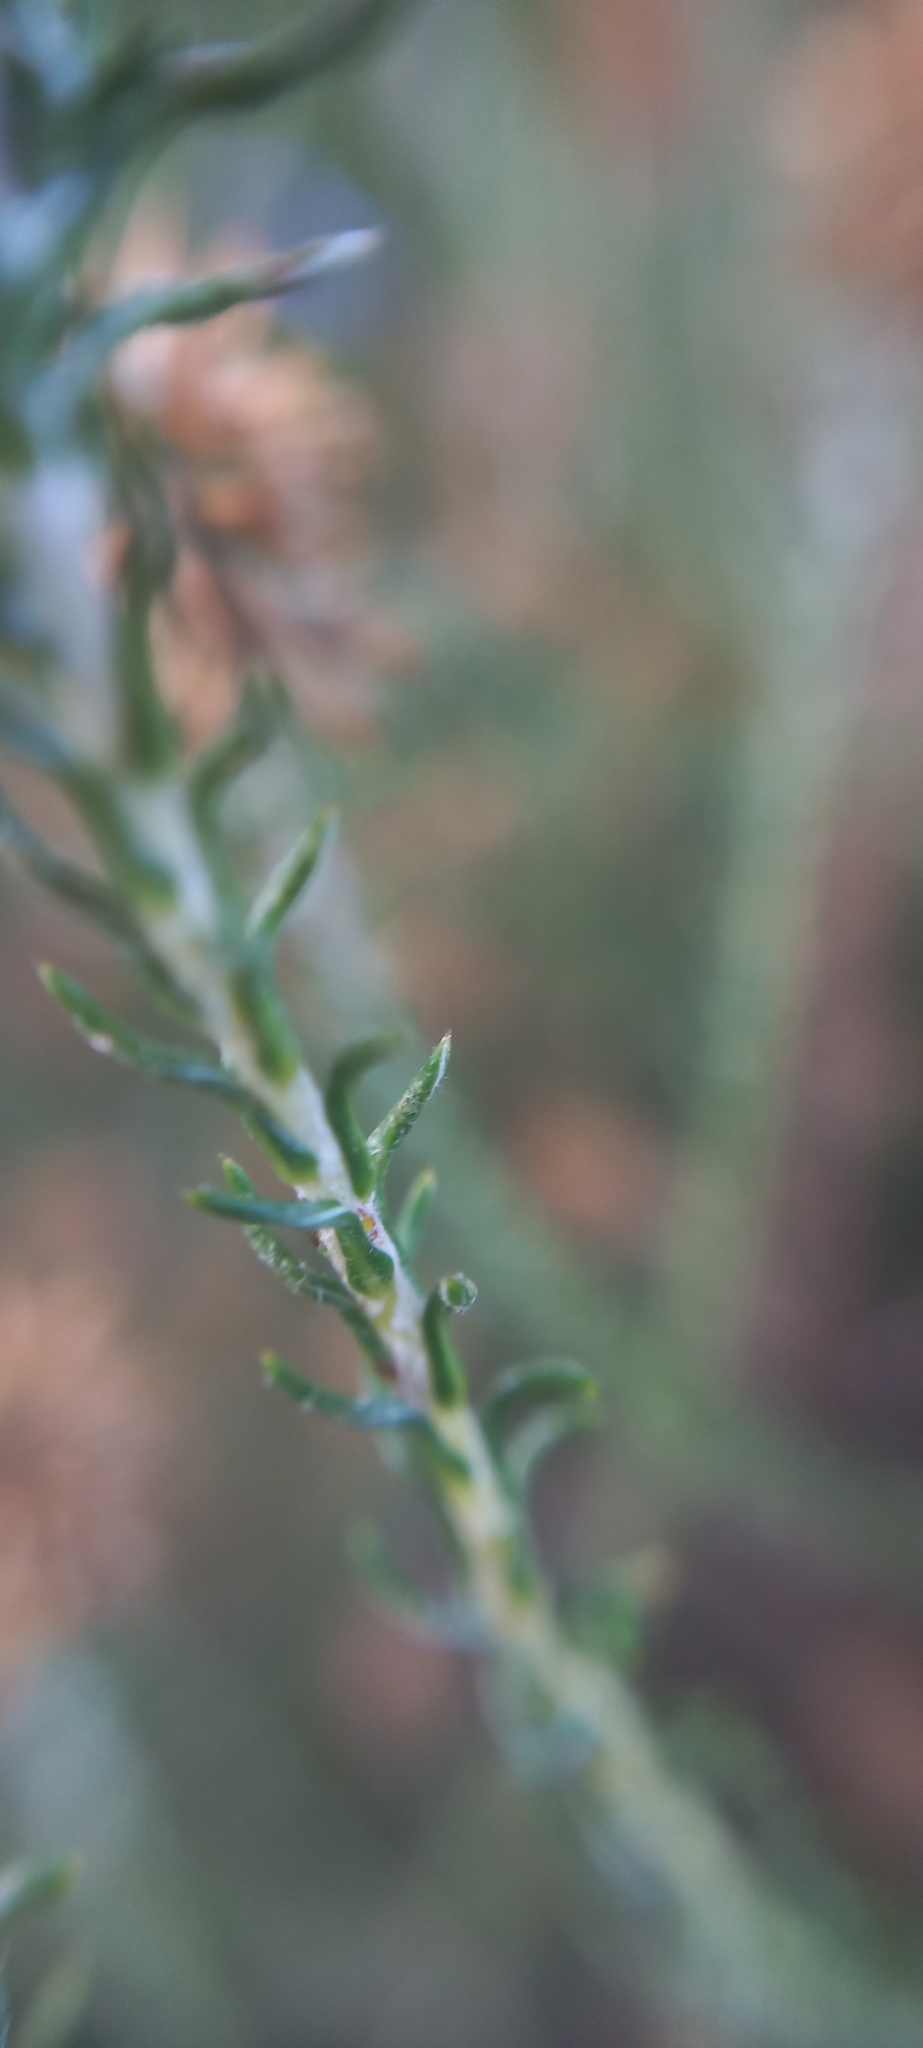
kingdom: Plantae
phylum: Tracheophyta
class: Magnoliopsida
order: Asterales
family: Asteraceae
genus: Seriphium
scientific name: Seriphium cinereum
